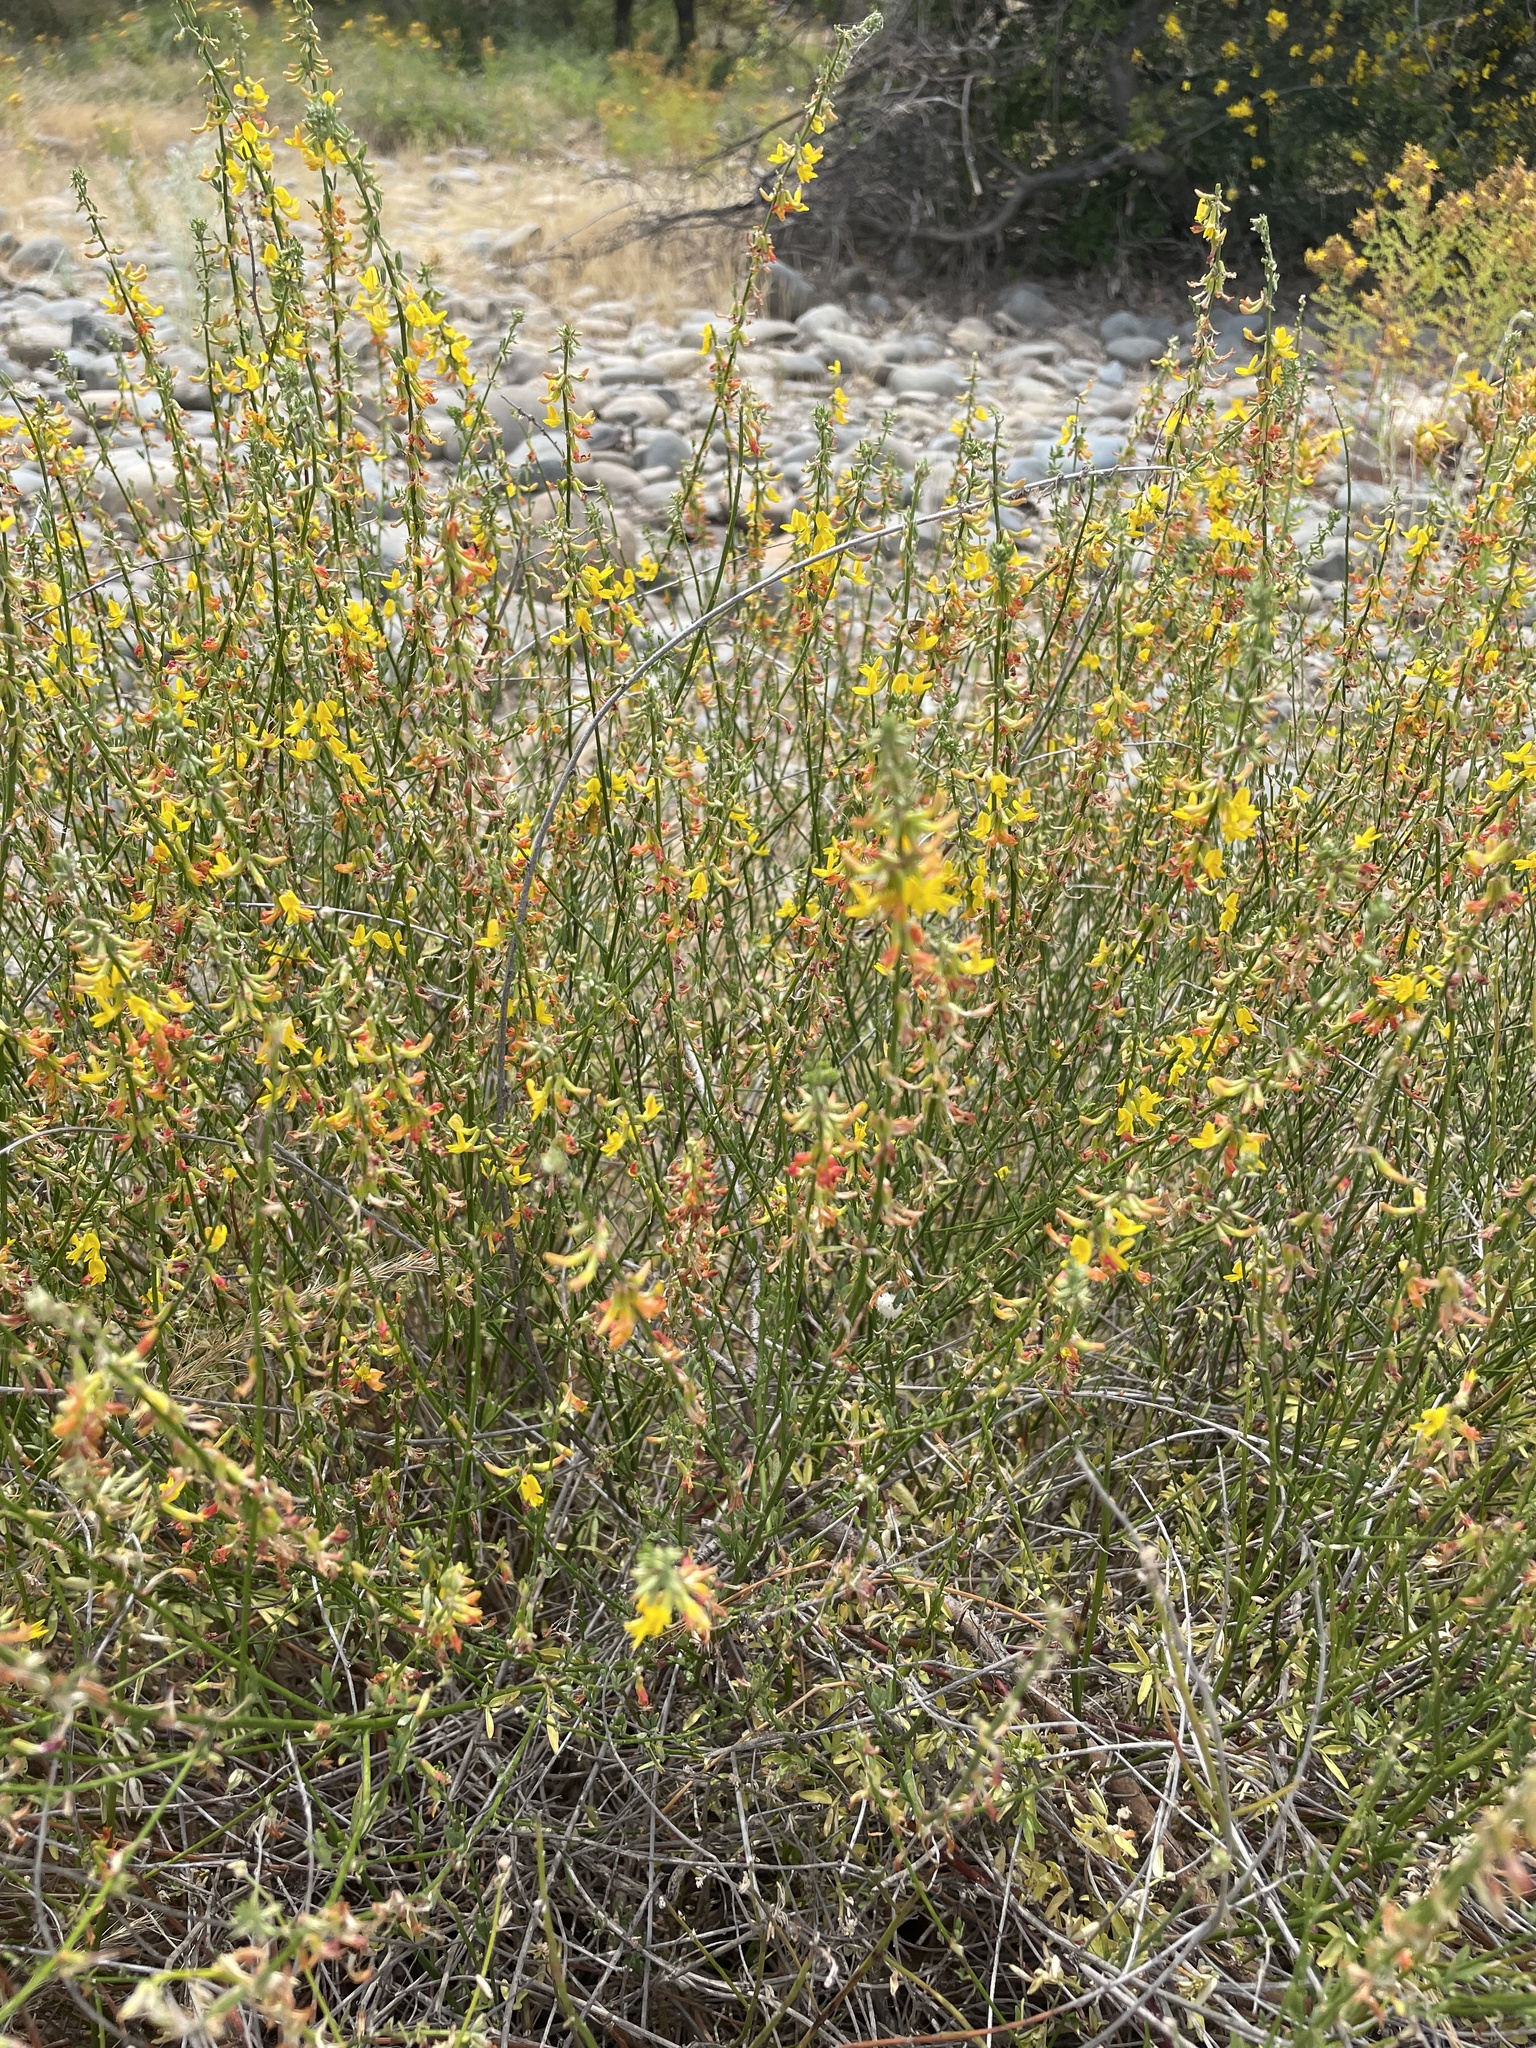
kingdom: Plantae
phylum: Tracheophyta
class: Magnoliopsida
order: Fabales
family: Fabaceae
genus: Acmispon
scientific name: Acmispon glaber
